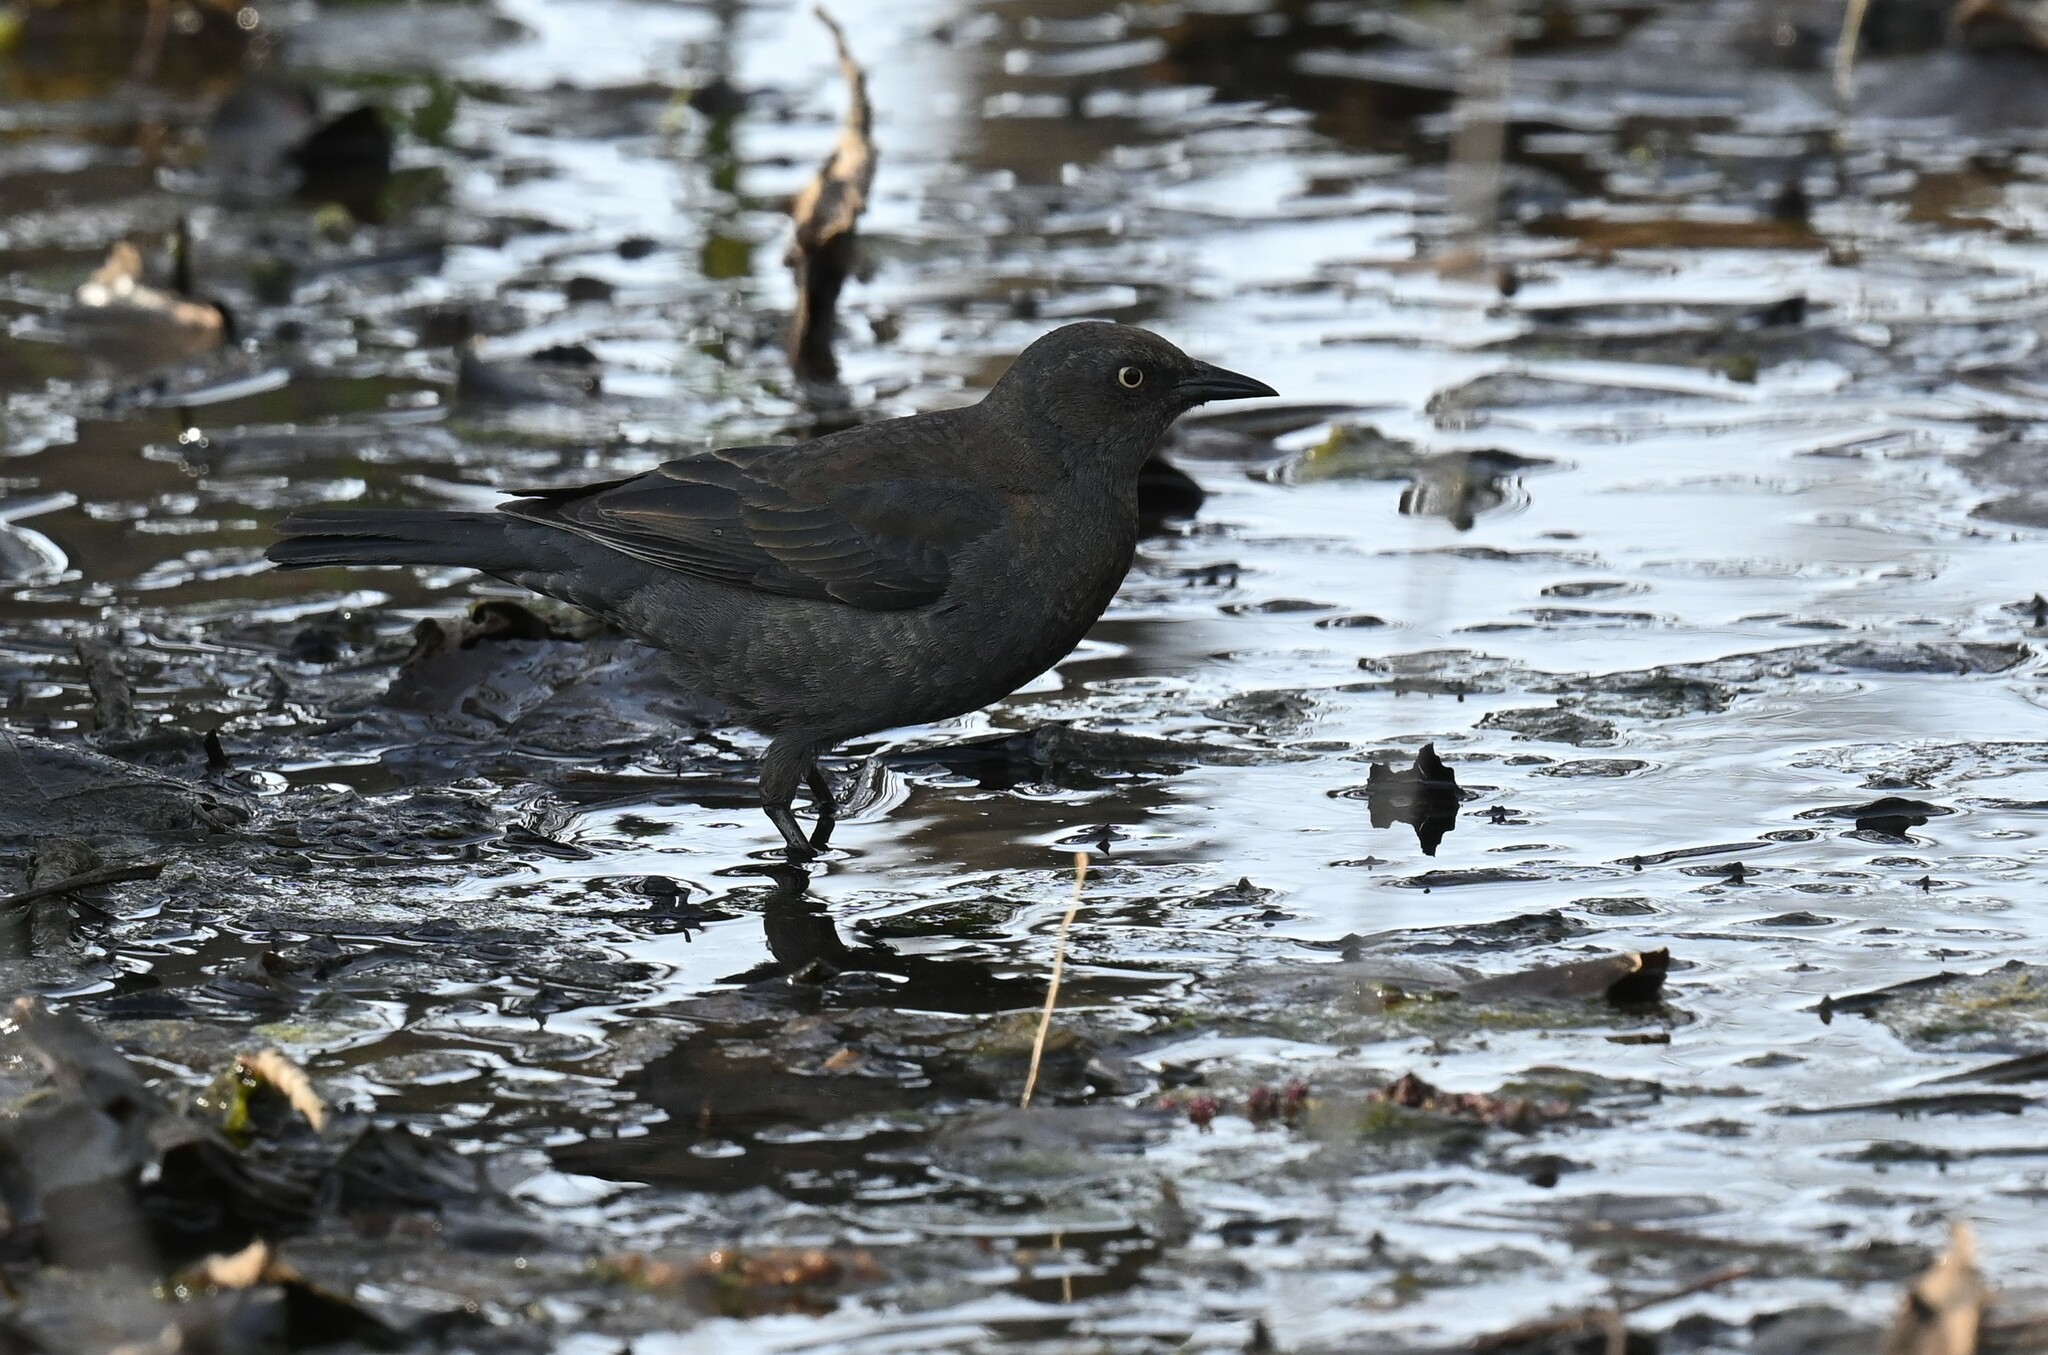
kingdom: Animalia
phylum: Chordata
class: Aves
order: Passeriformes
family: Icteridae
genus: Euphagus
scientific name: Euphagus carolinus
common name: Rusty blackbird
